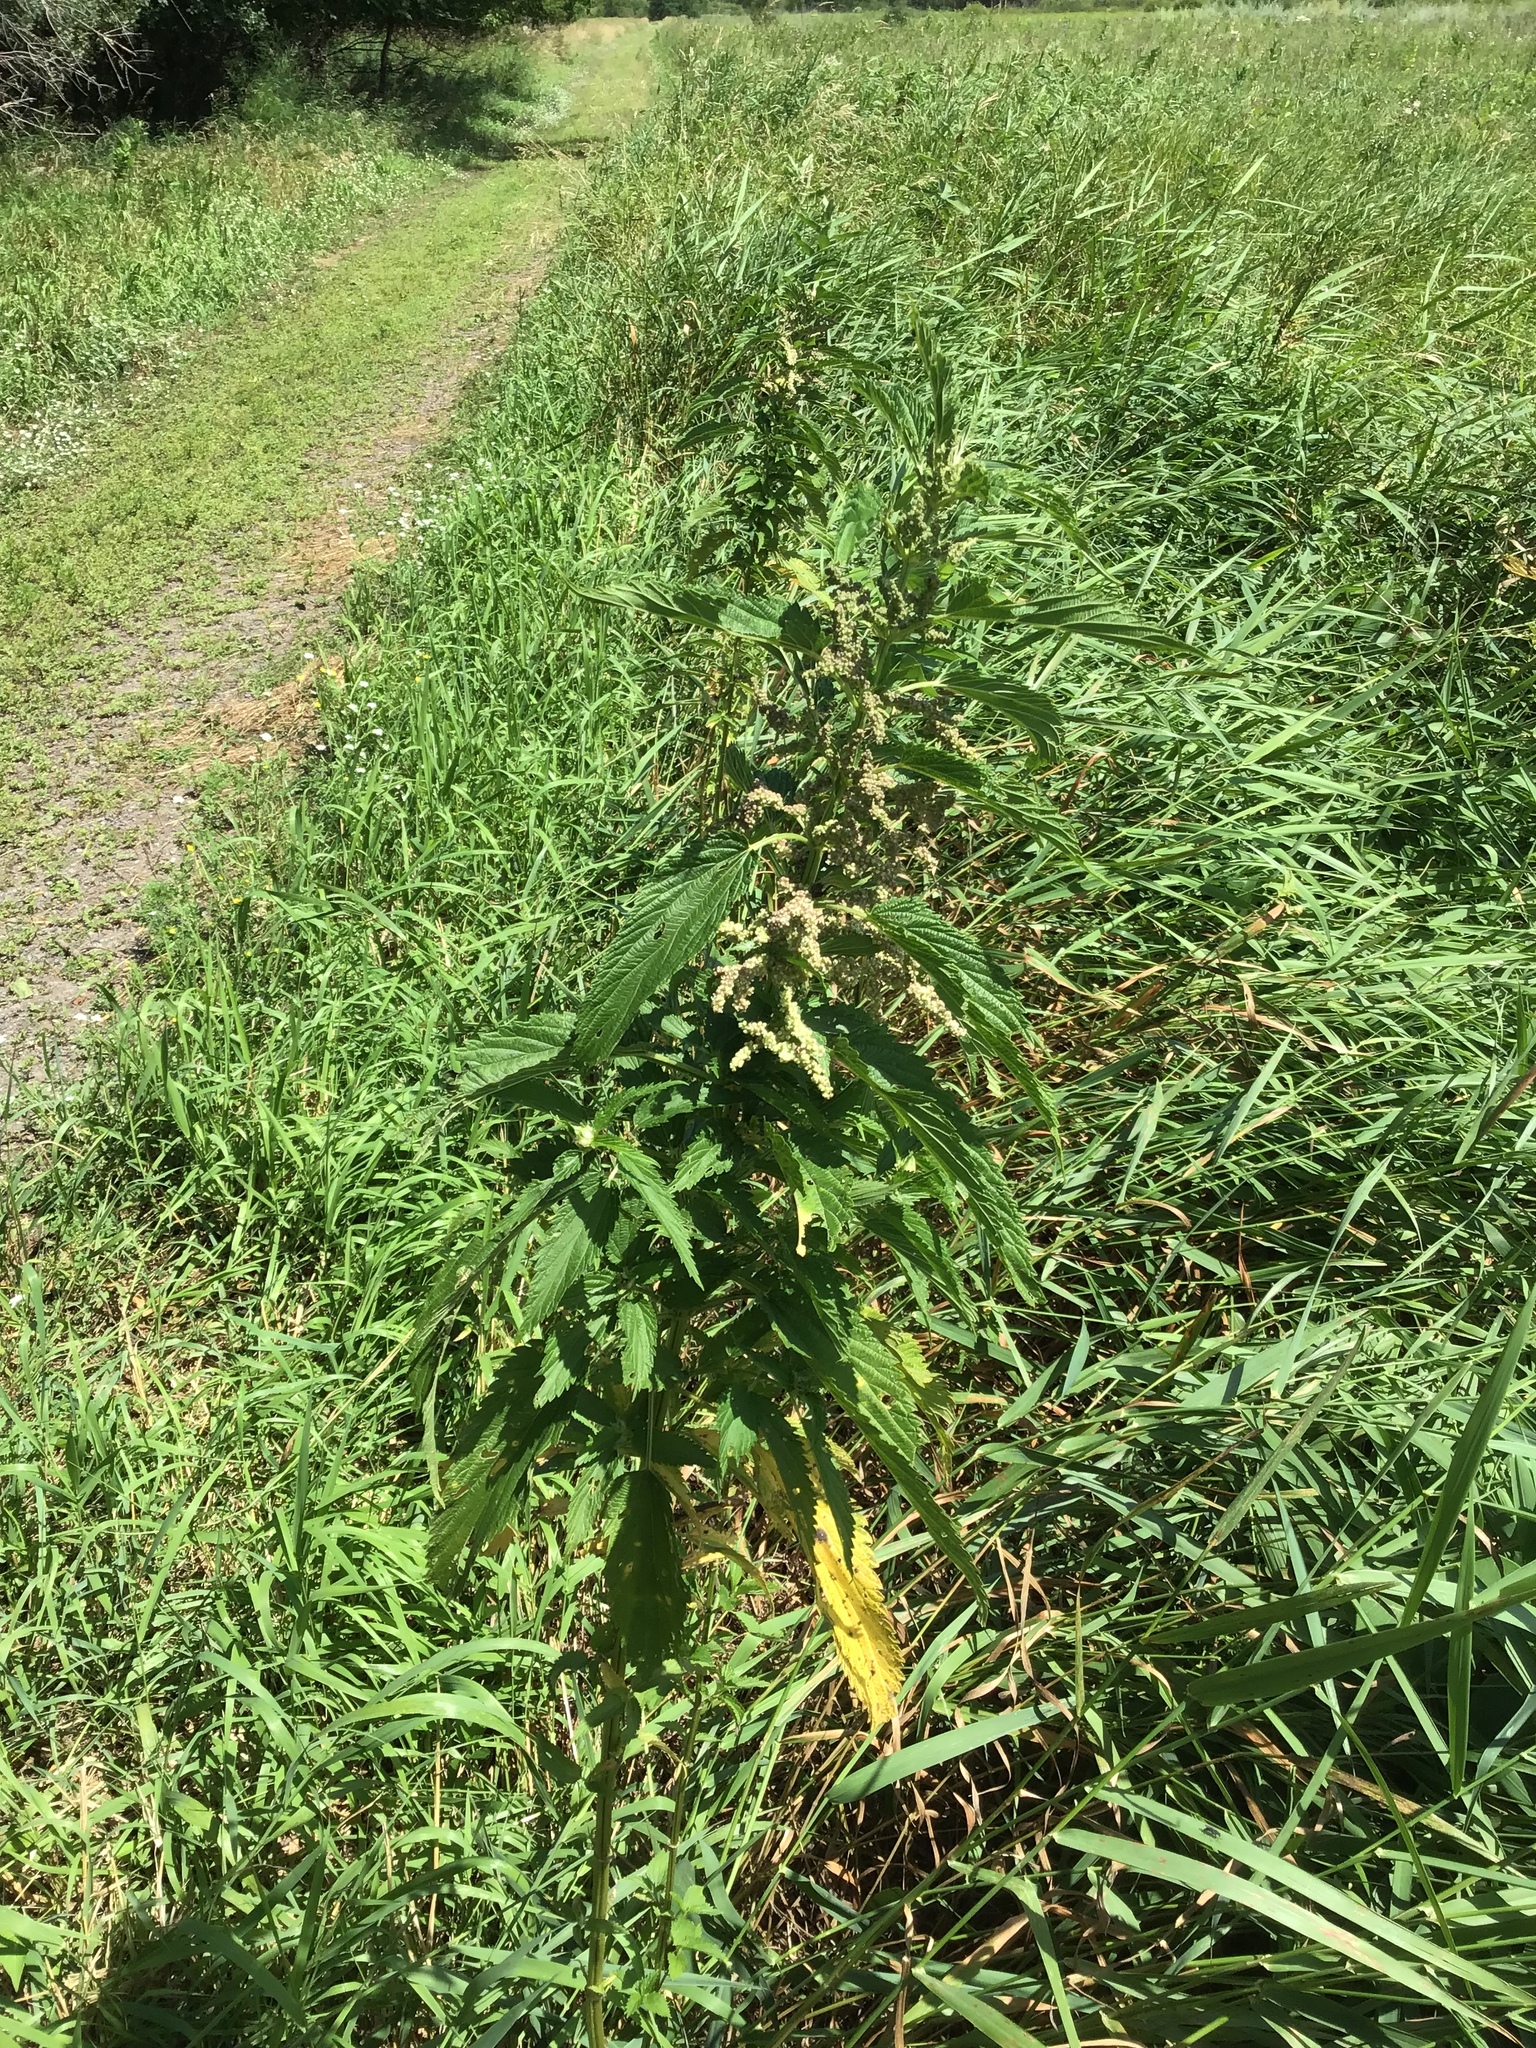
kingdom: Plantae
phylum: Tracheophyta
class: Magnoliopsida
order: Rosales
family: Urticaceae
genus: Urtica
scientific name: Urtica dioica
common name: Common nettle
